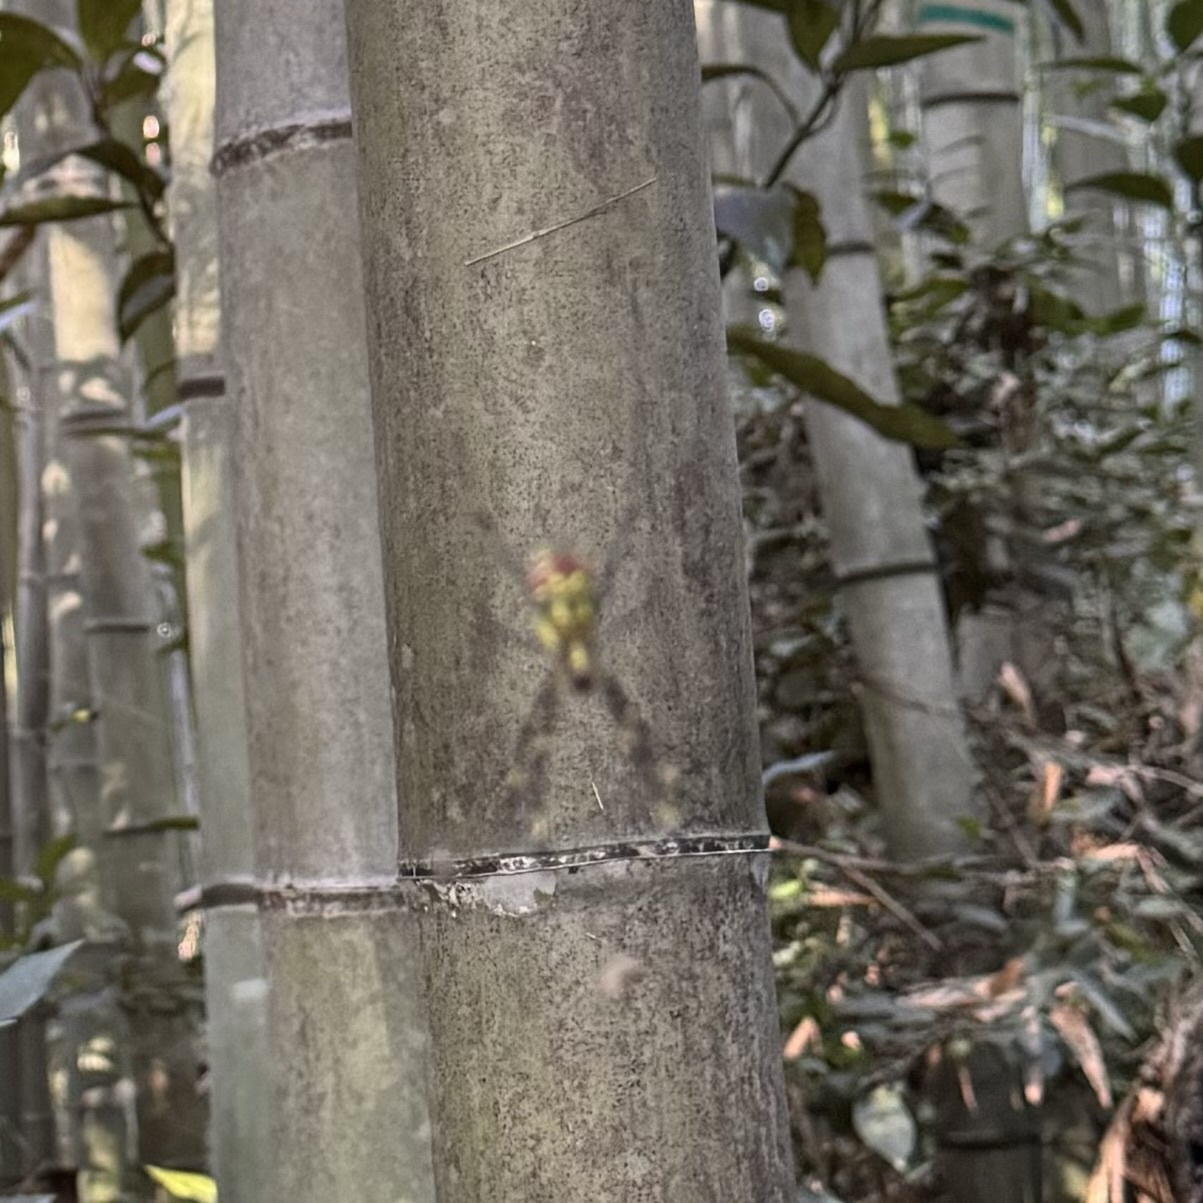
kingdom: Animalia
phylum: Arthropoda
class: Arachnida
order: Araneae
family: Araneidae
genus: Trichonephila
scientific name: Trichonephila clavata
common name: Jorō spider
